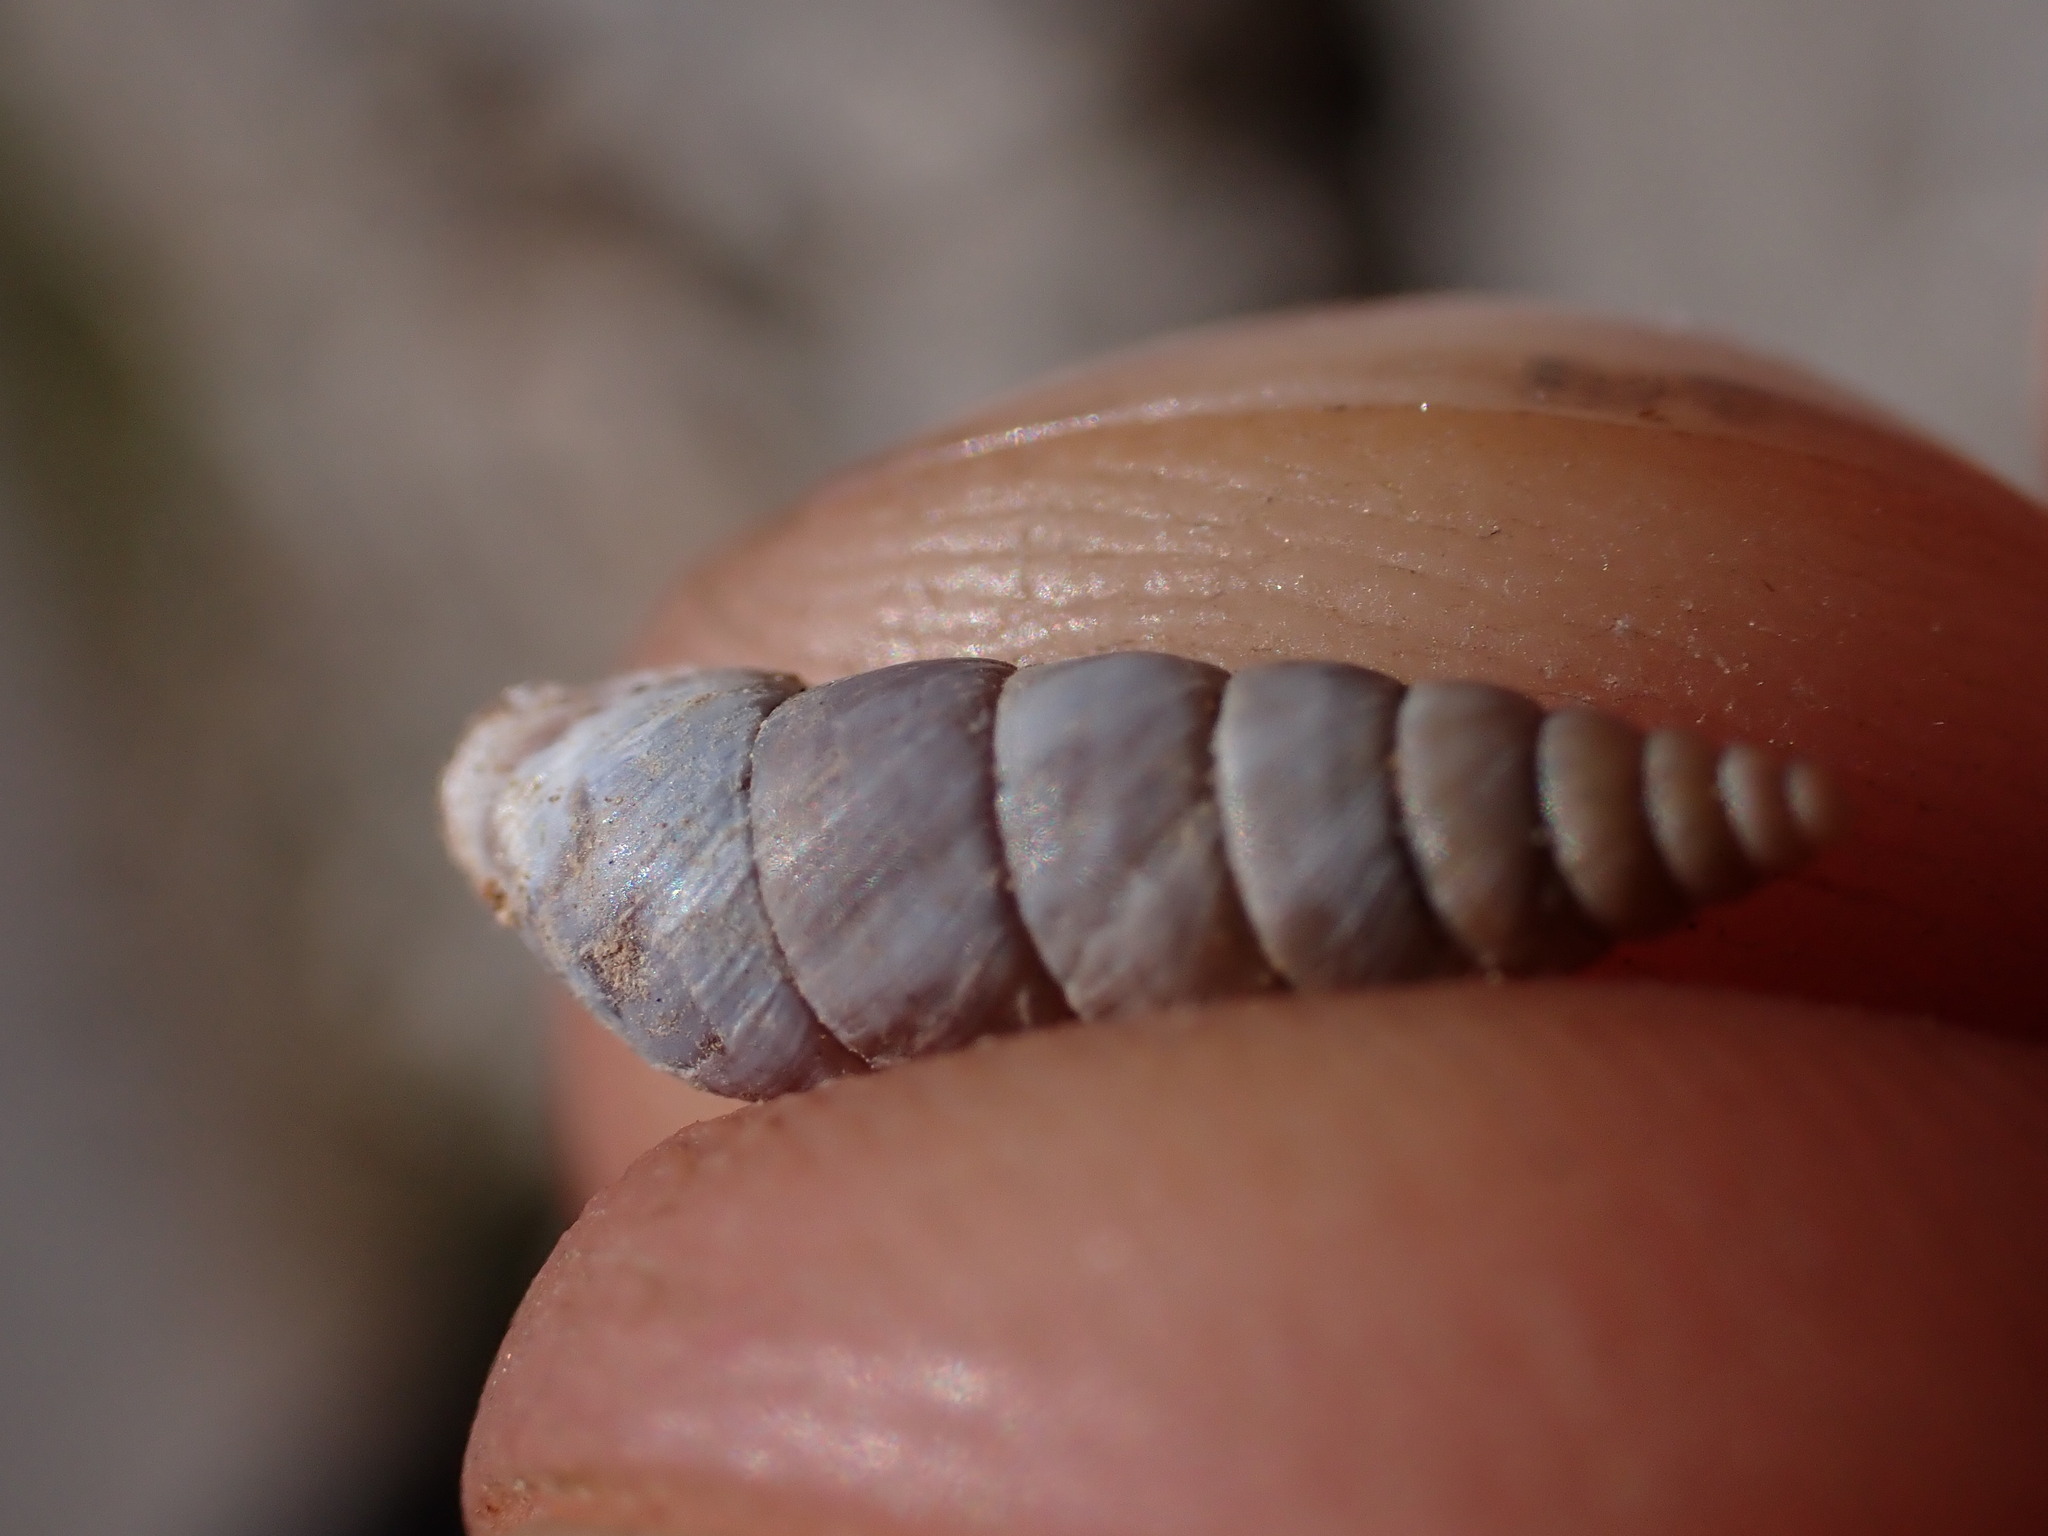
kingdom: Animalia
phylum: Mollusca
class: Gastropoda
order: Stylommatophora
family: Chondrinidae
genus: Solatopupa
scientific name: Solatopupa similis
